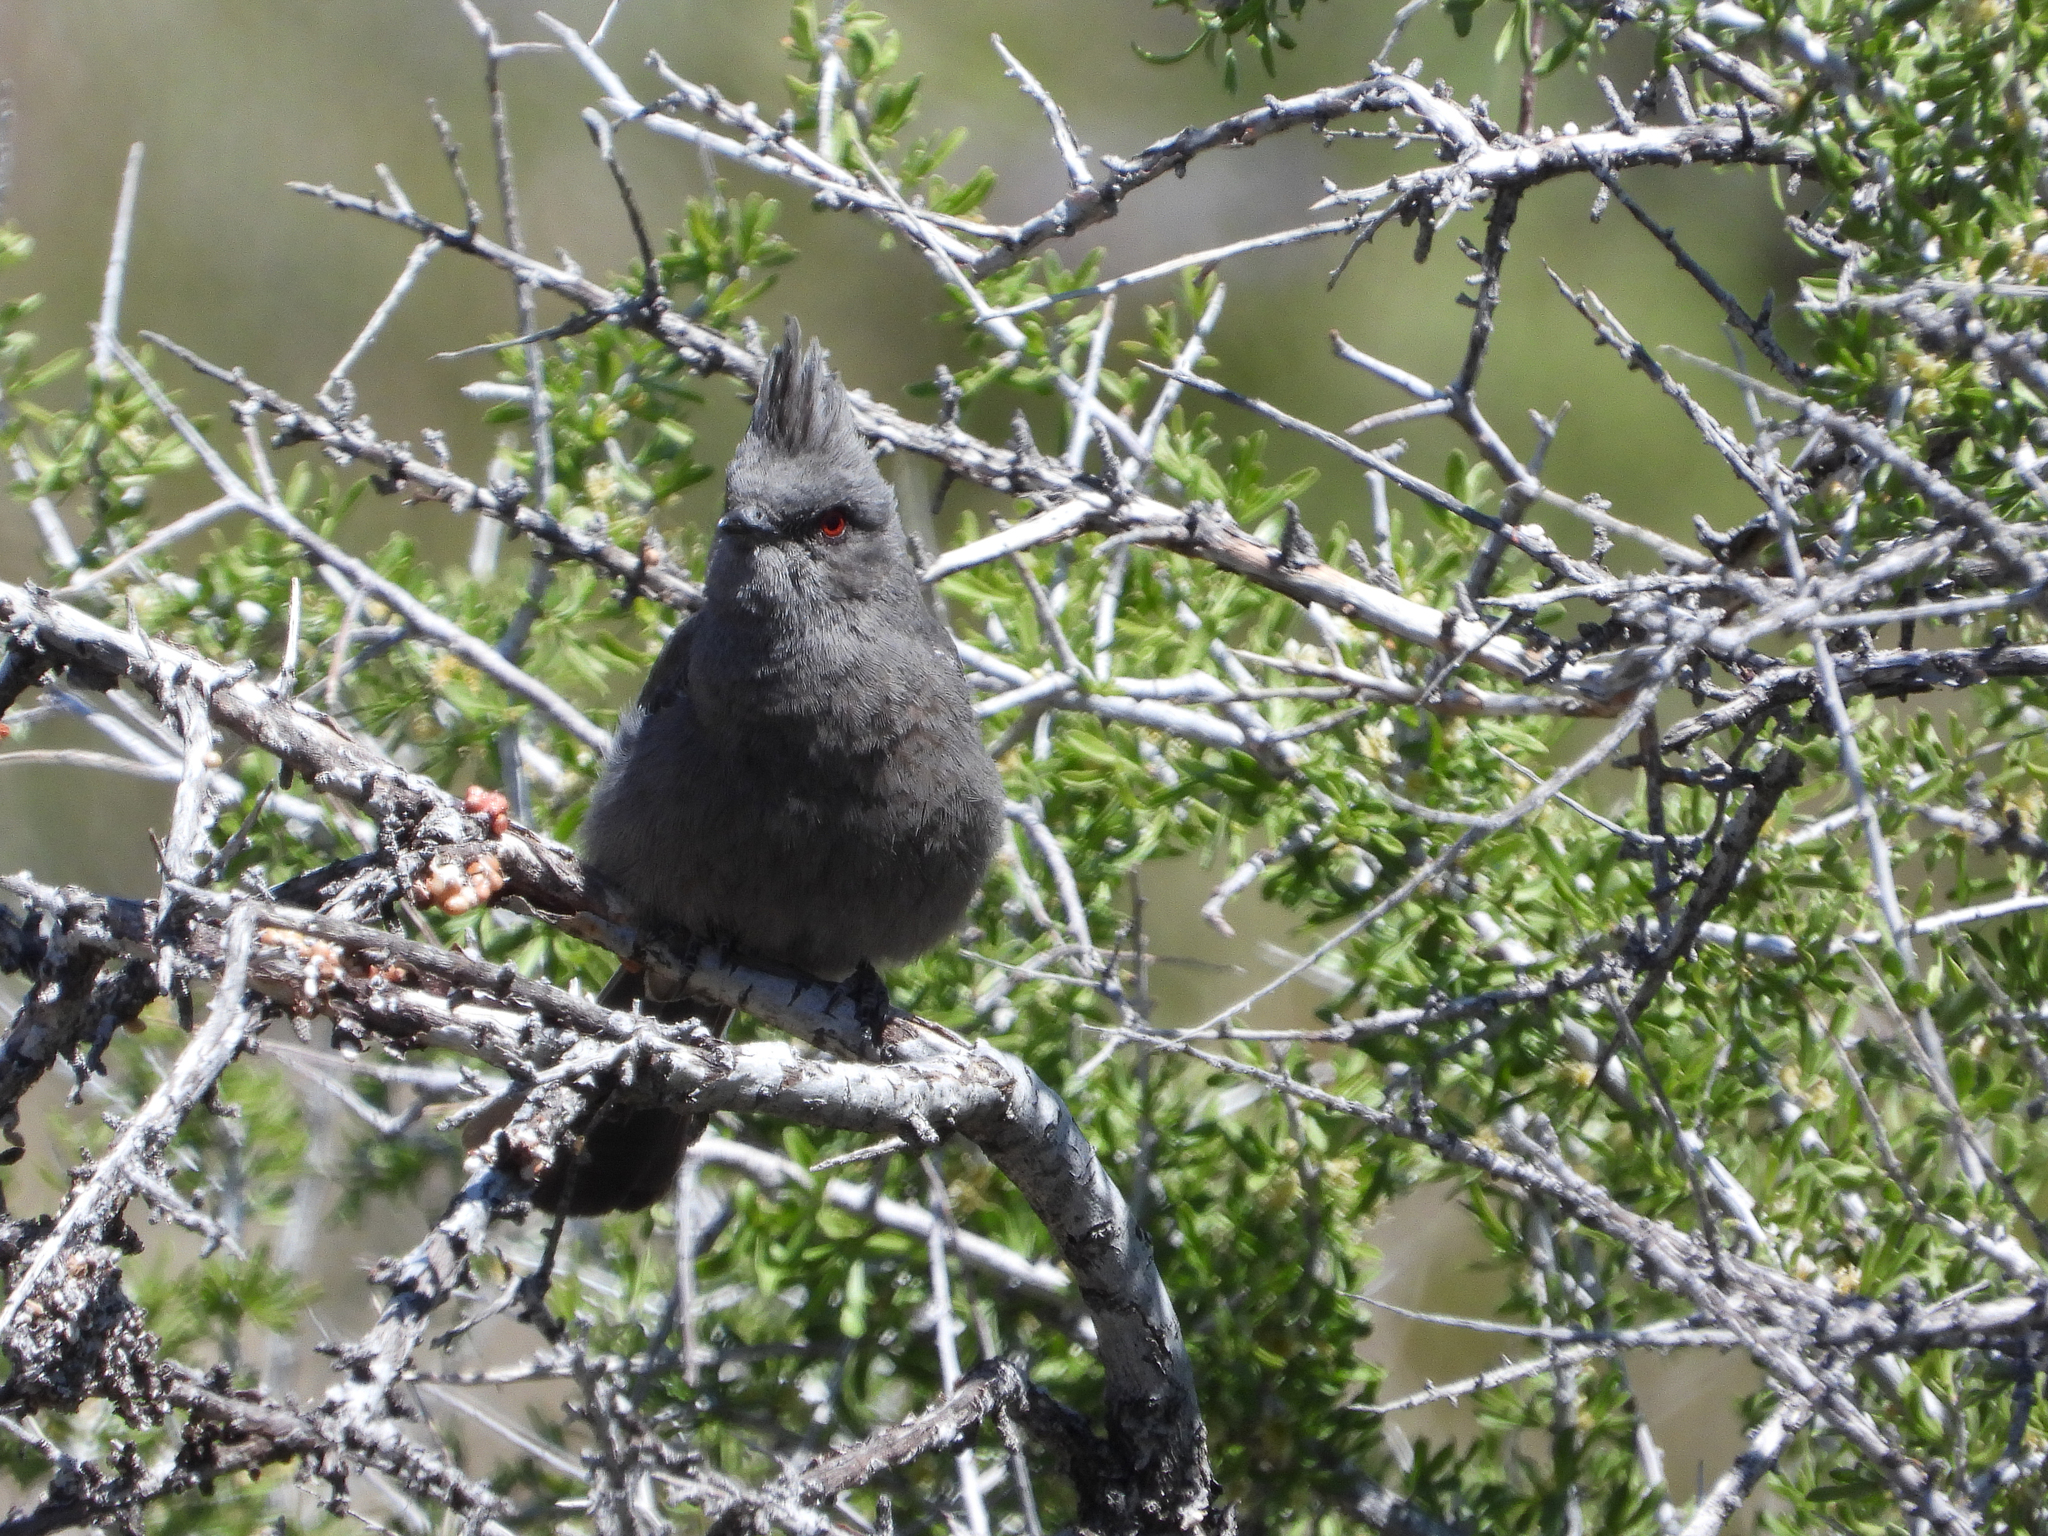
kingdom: Animalia
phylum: Chordata
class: Aves
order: Passeriformes
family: Ptilogonatidae
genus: Phainopepla
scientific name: Phainopepla nitens
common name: Phainopepla
